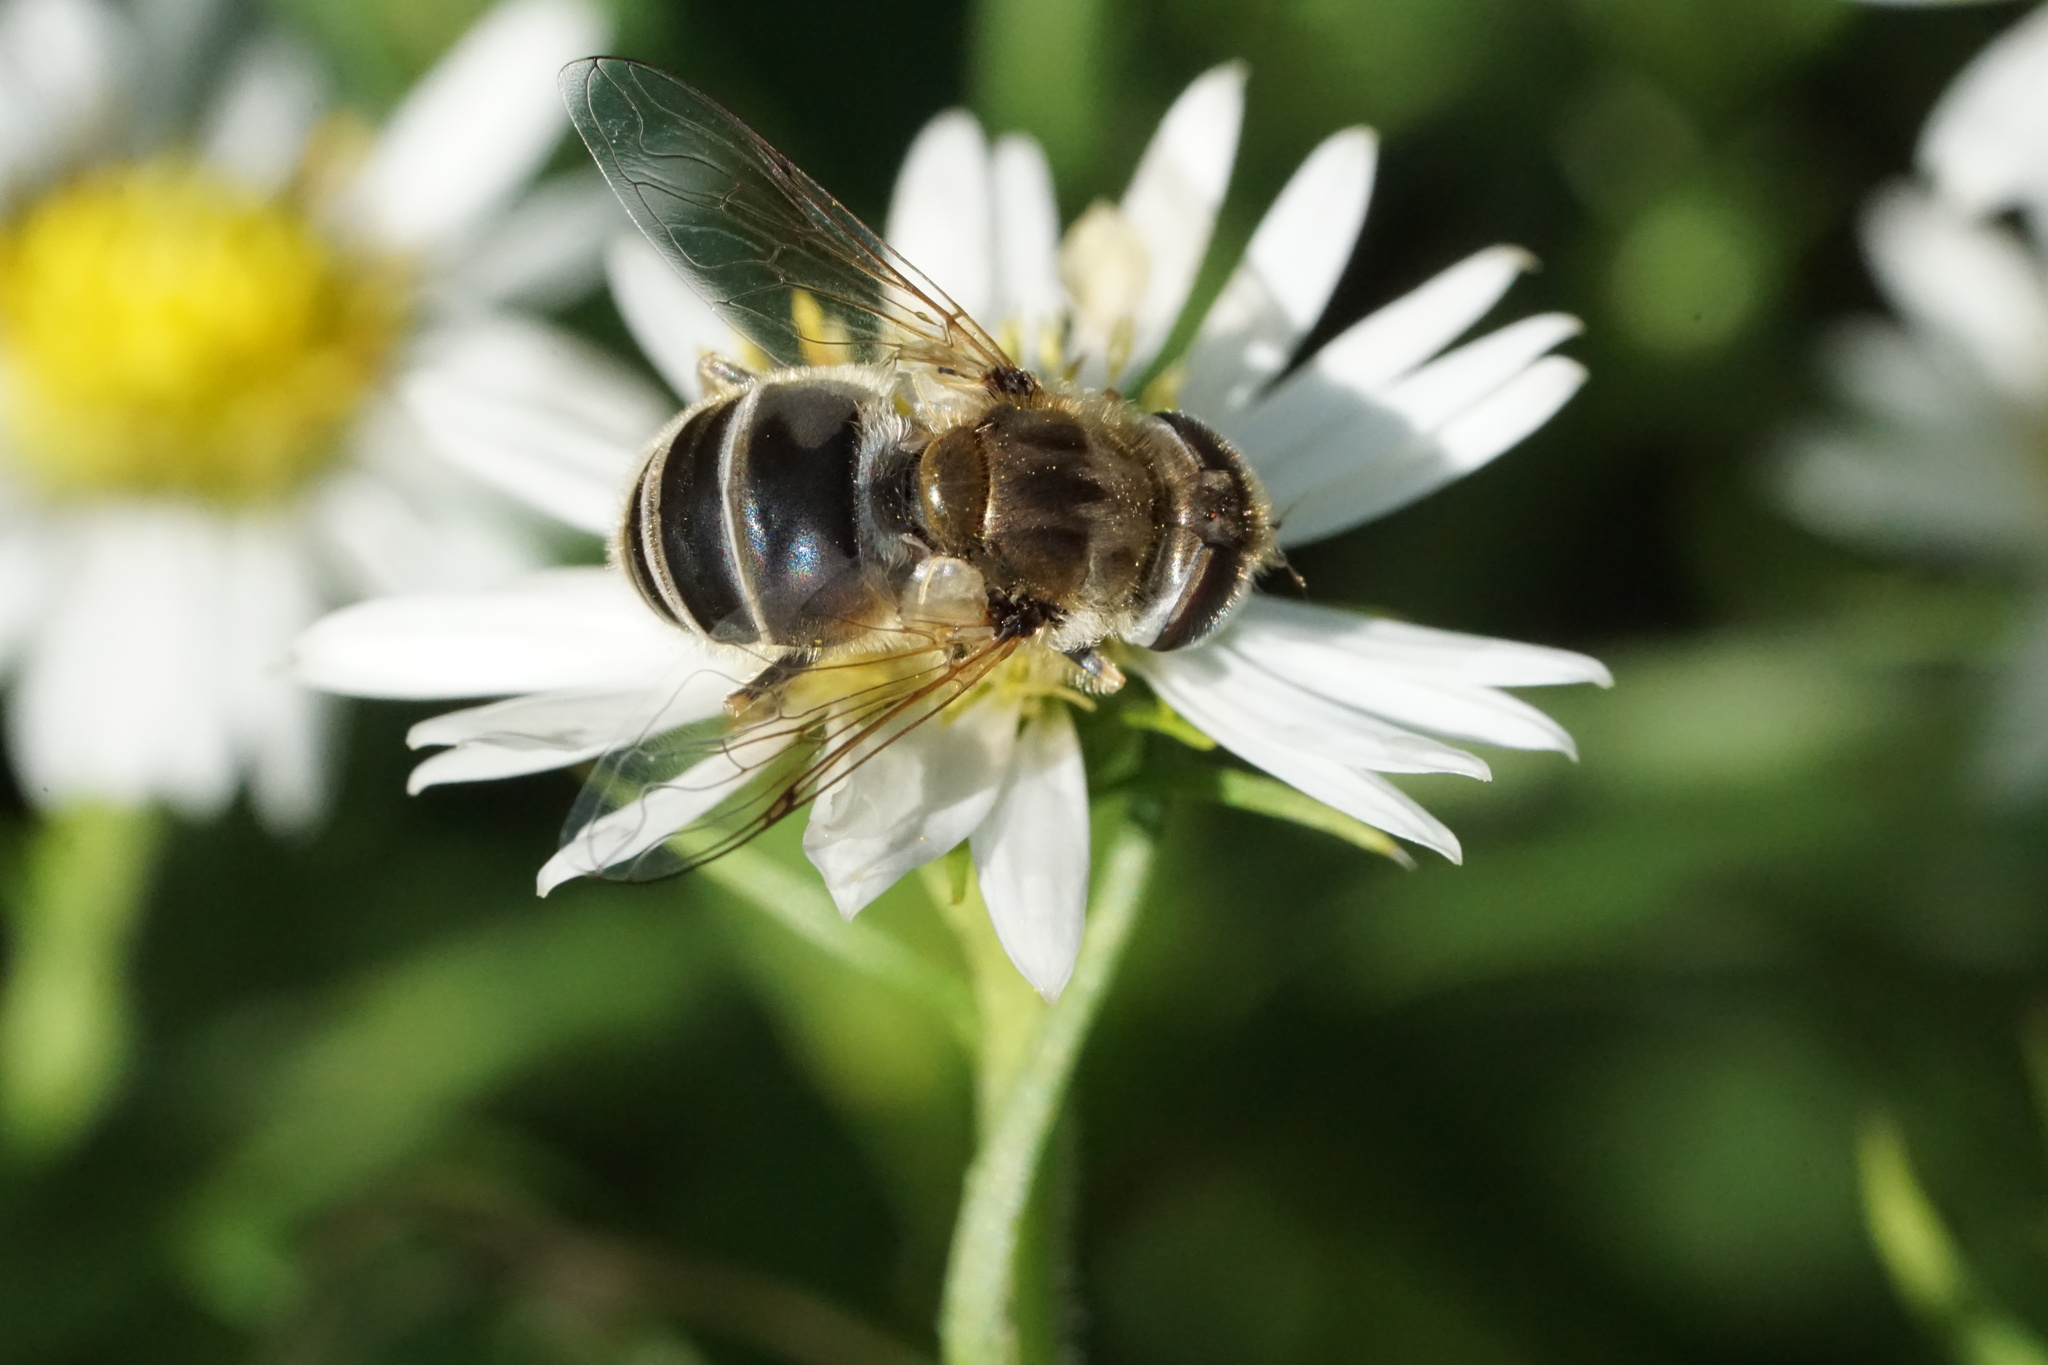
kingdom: Animalia
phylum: Arthropoda
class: Insecta
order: Diptera
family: Syrphidae
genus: Eristalis
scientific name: Eristalis arbustorum
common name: Hover fly
